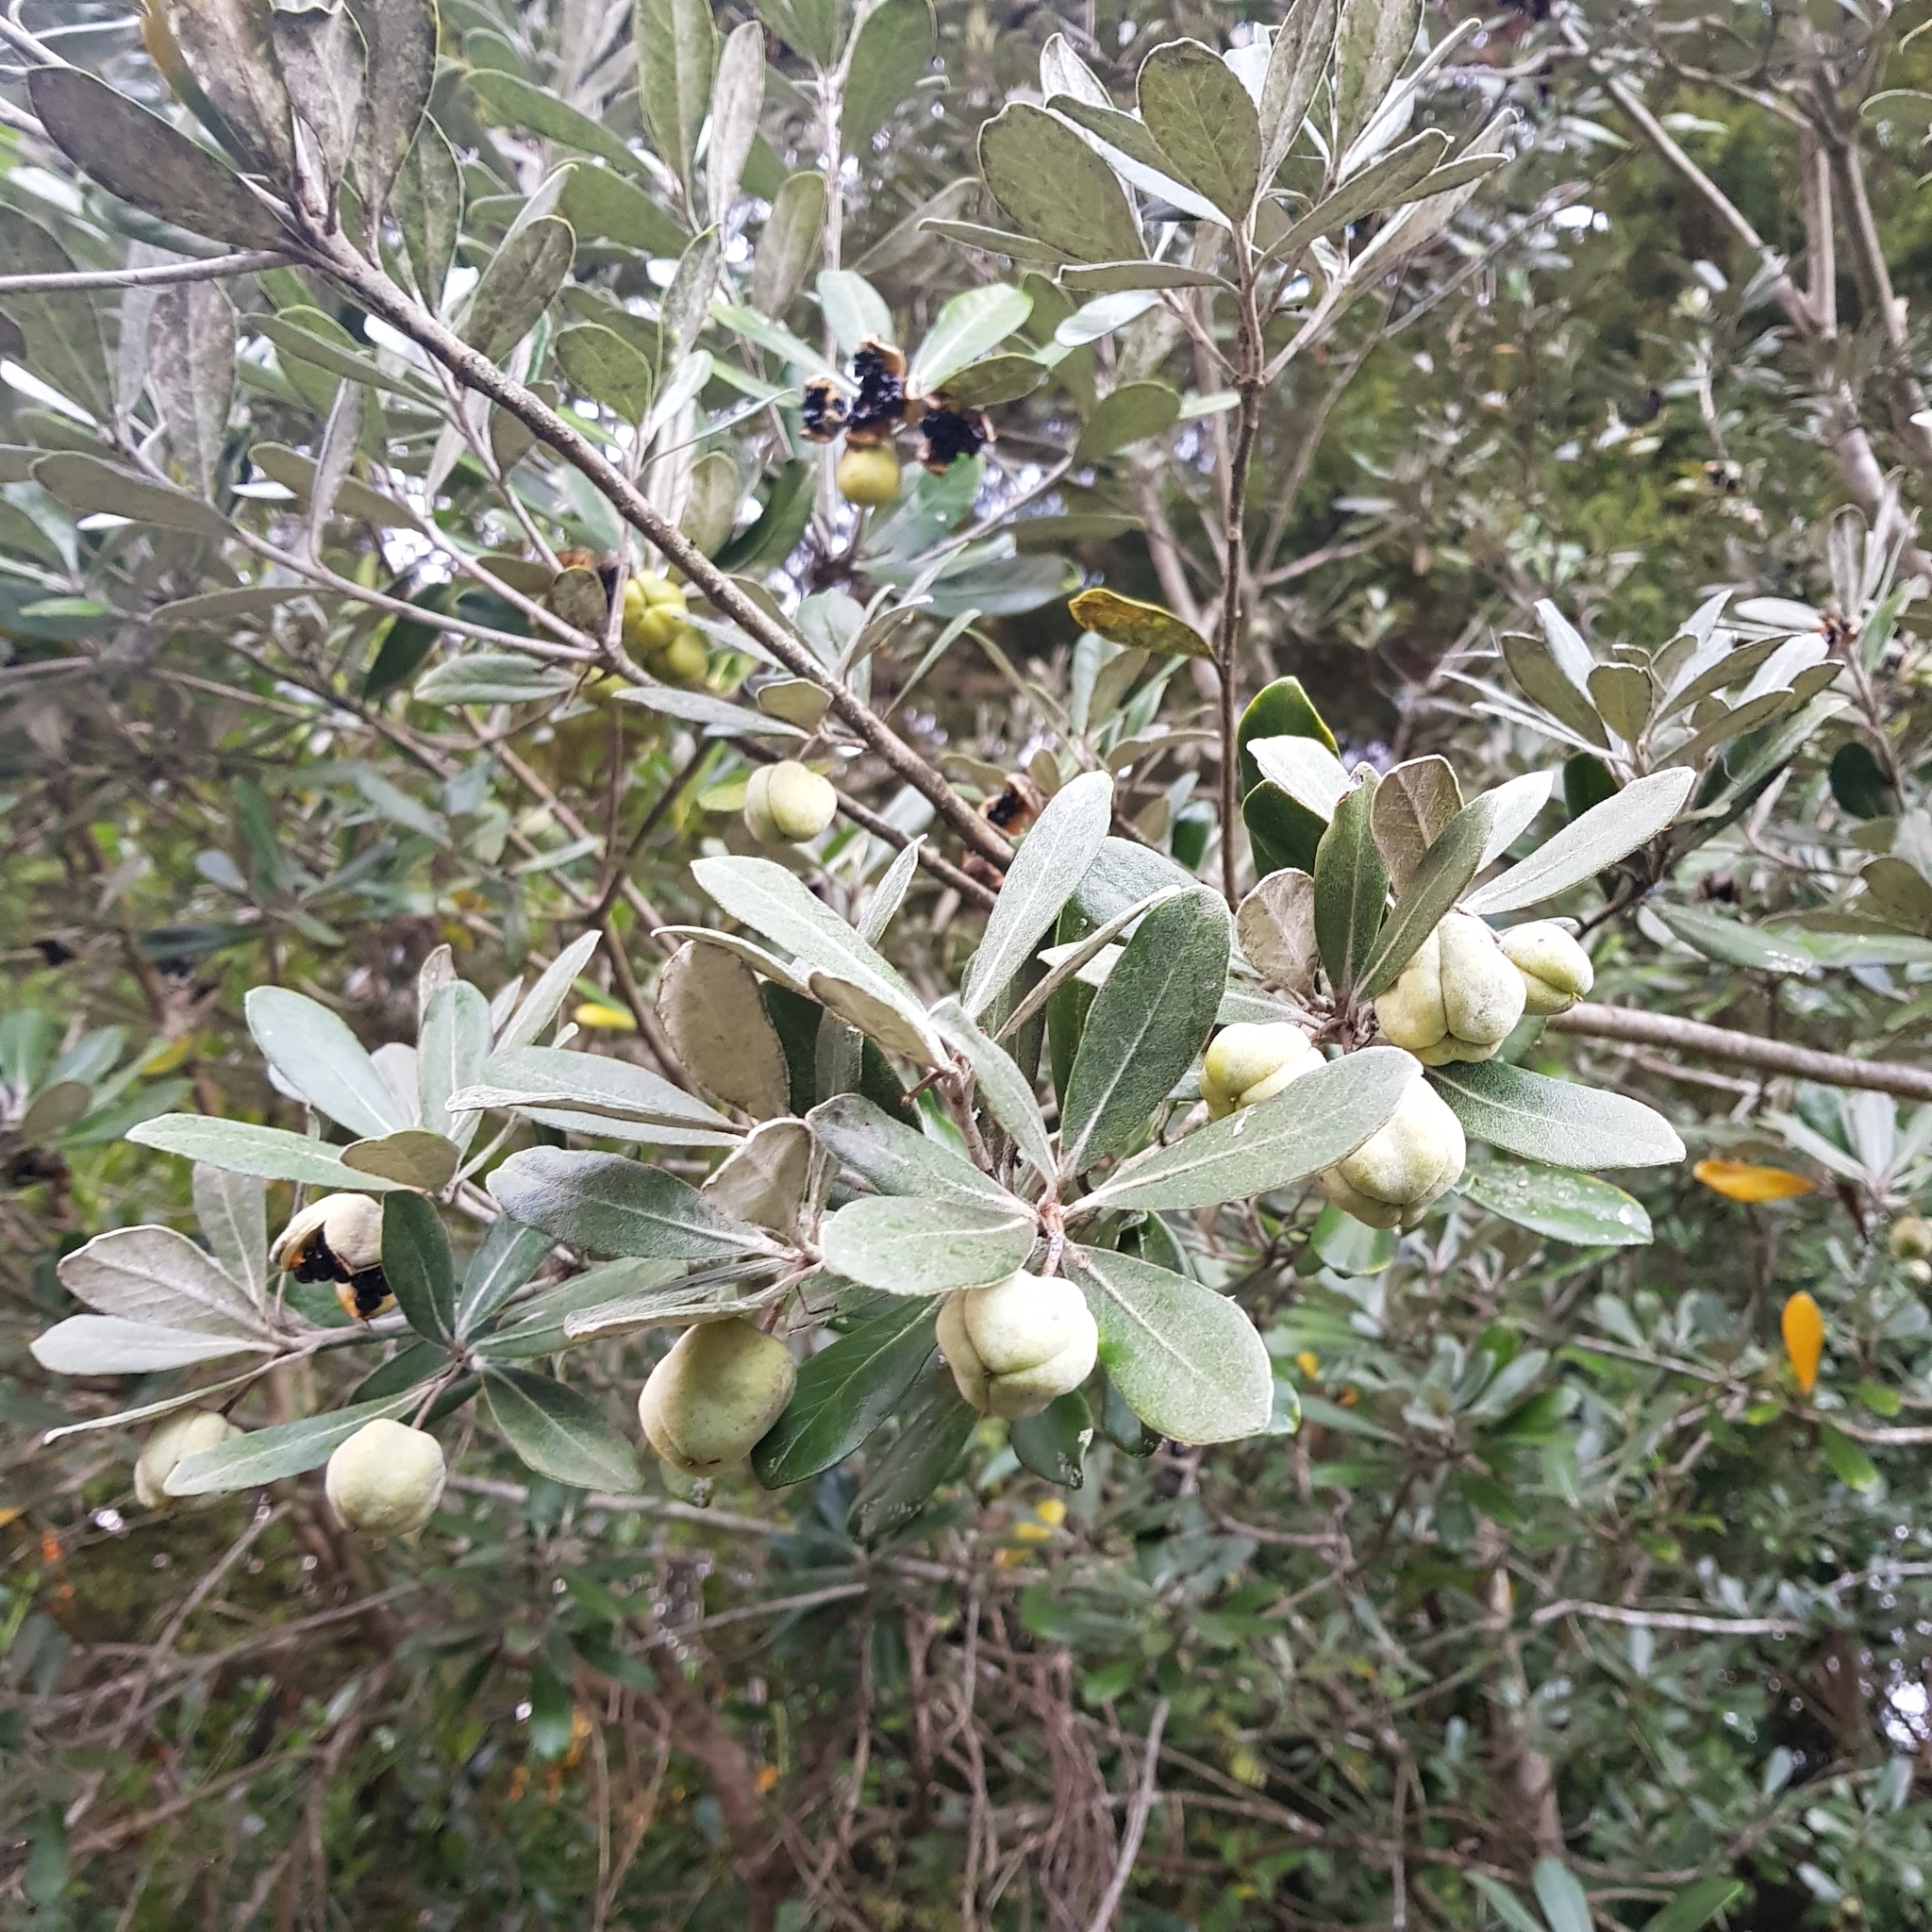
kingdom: Plantae
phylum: Tracheophyta
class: Magnoliopsida
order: Apiales
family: Pittosporaceae
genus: Pittosporum
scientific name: Pittosporum crassifolium
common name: Karo
